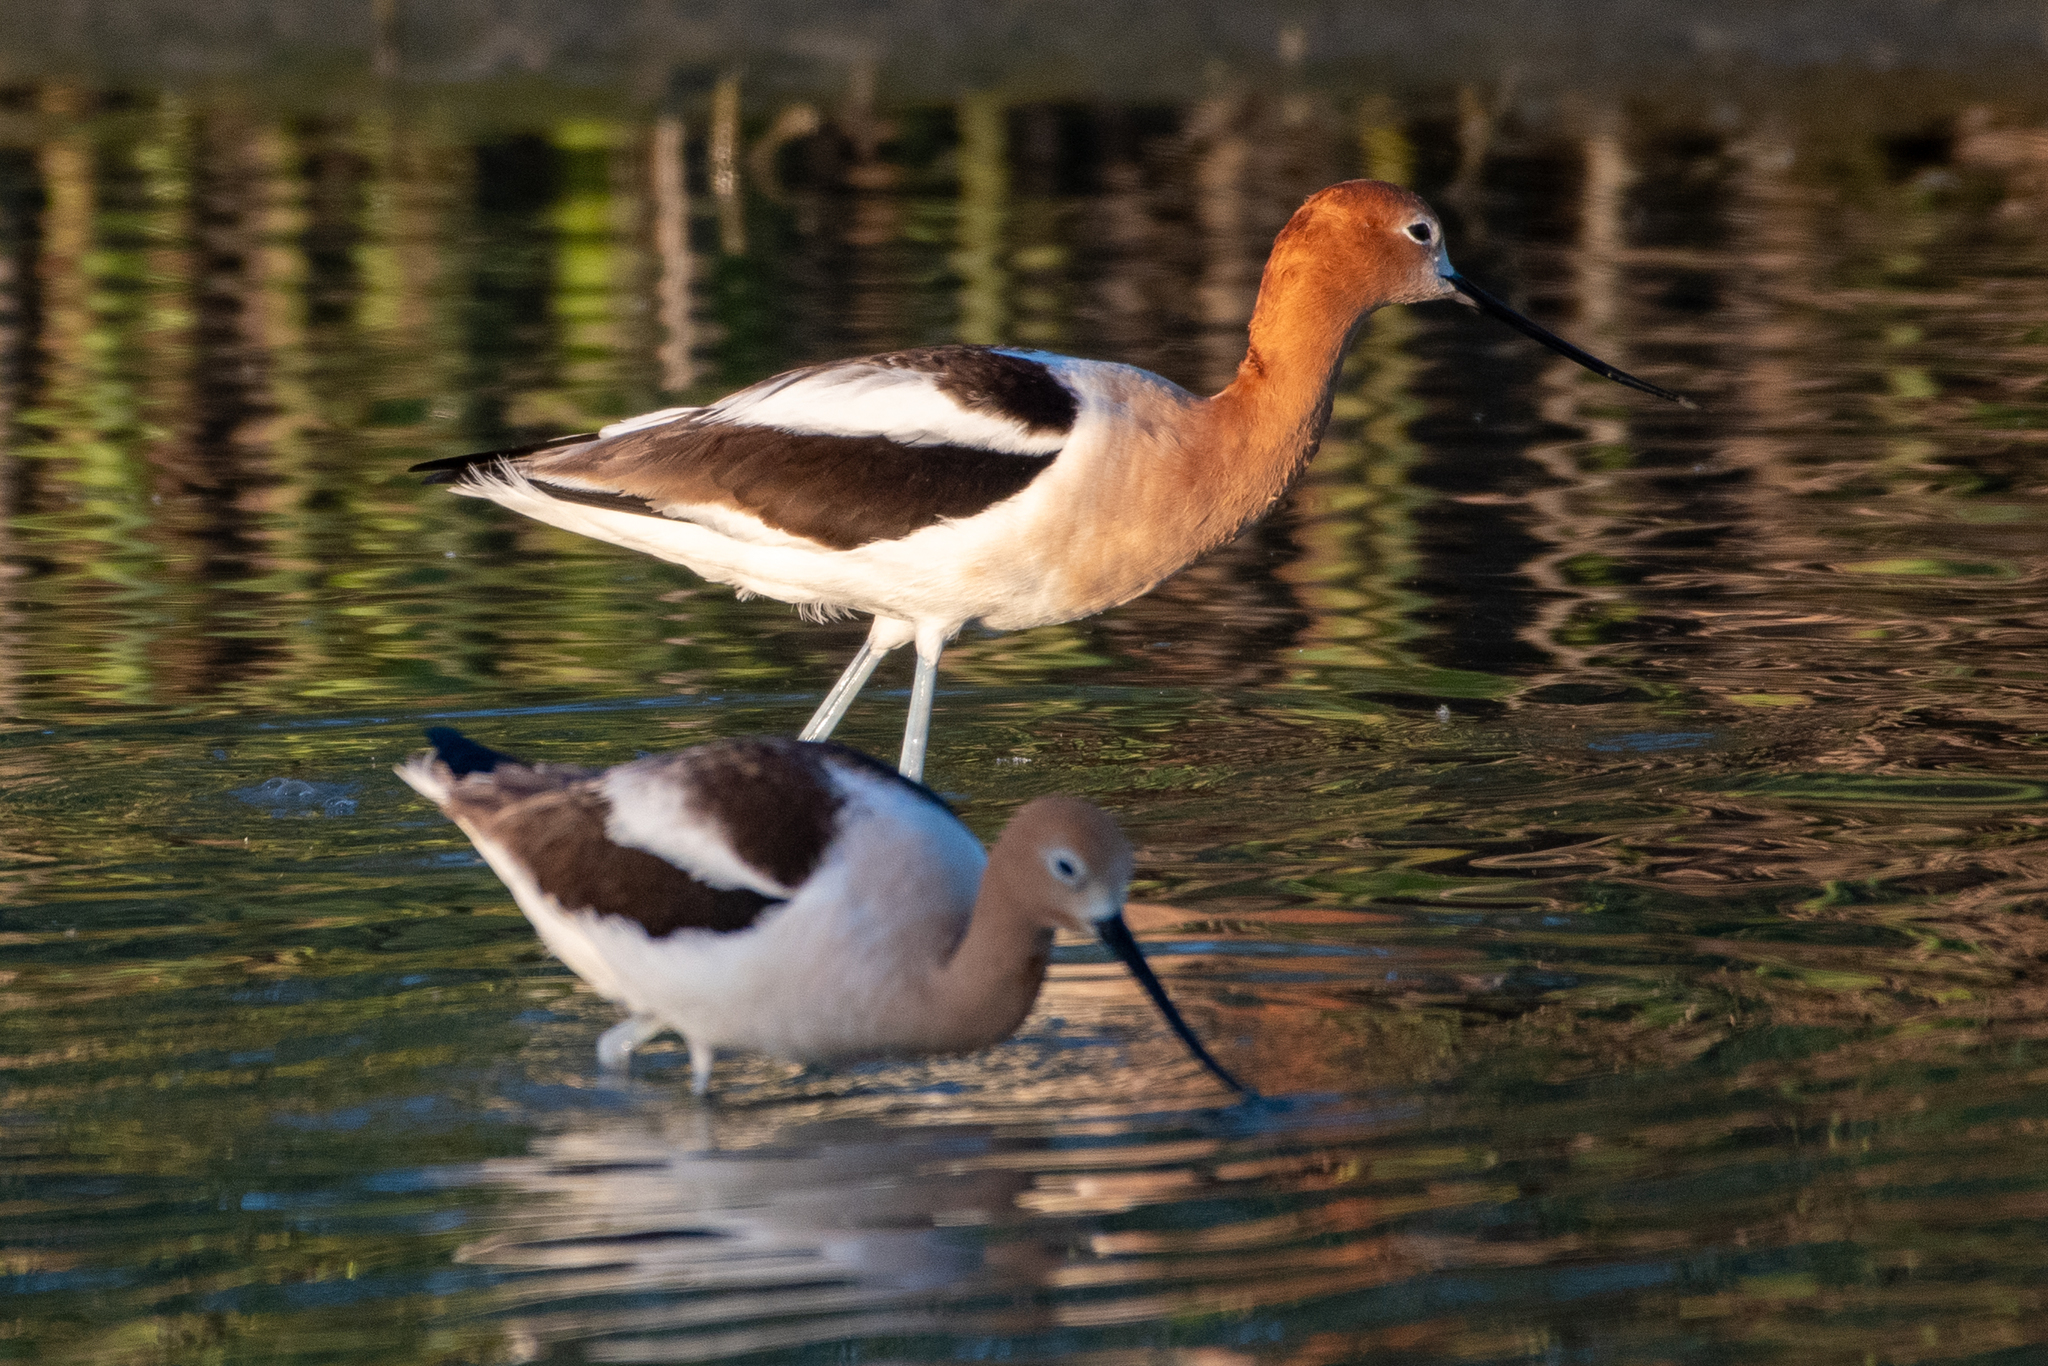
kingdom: Animalia
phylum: Chordata
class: Aves
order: Charadriiformes
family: Recurvirostridae
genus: Recurvirostra
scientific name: Recurvirostra americana
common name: American avocet
